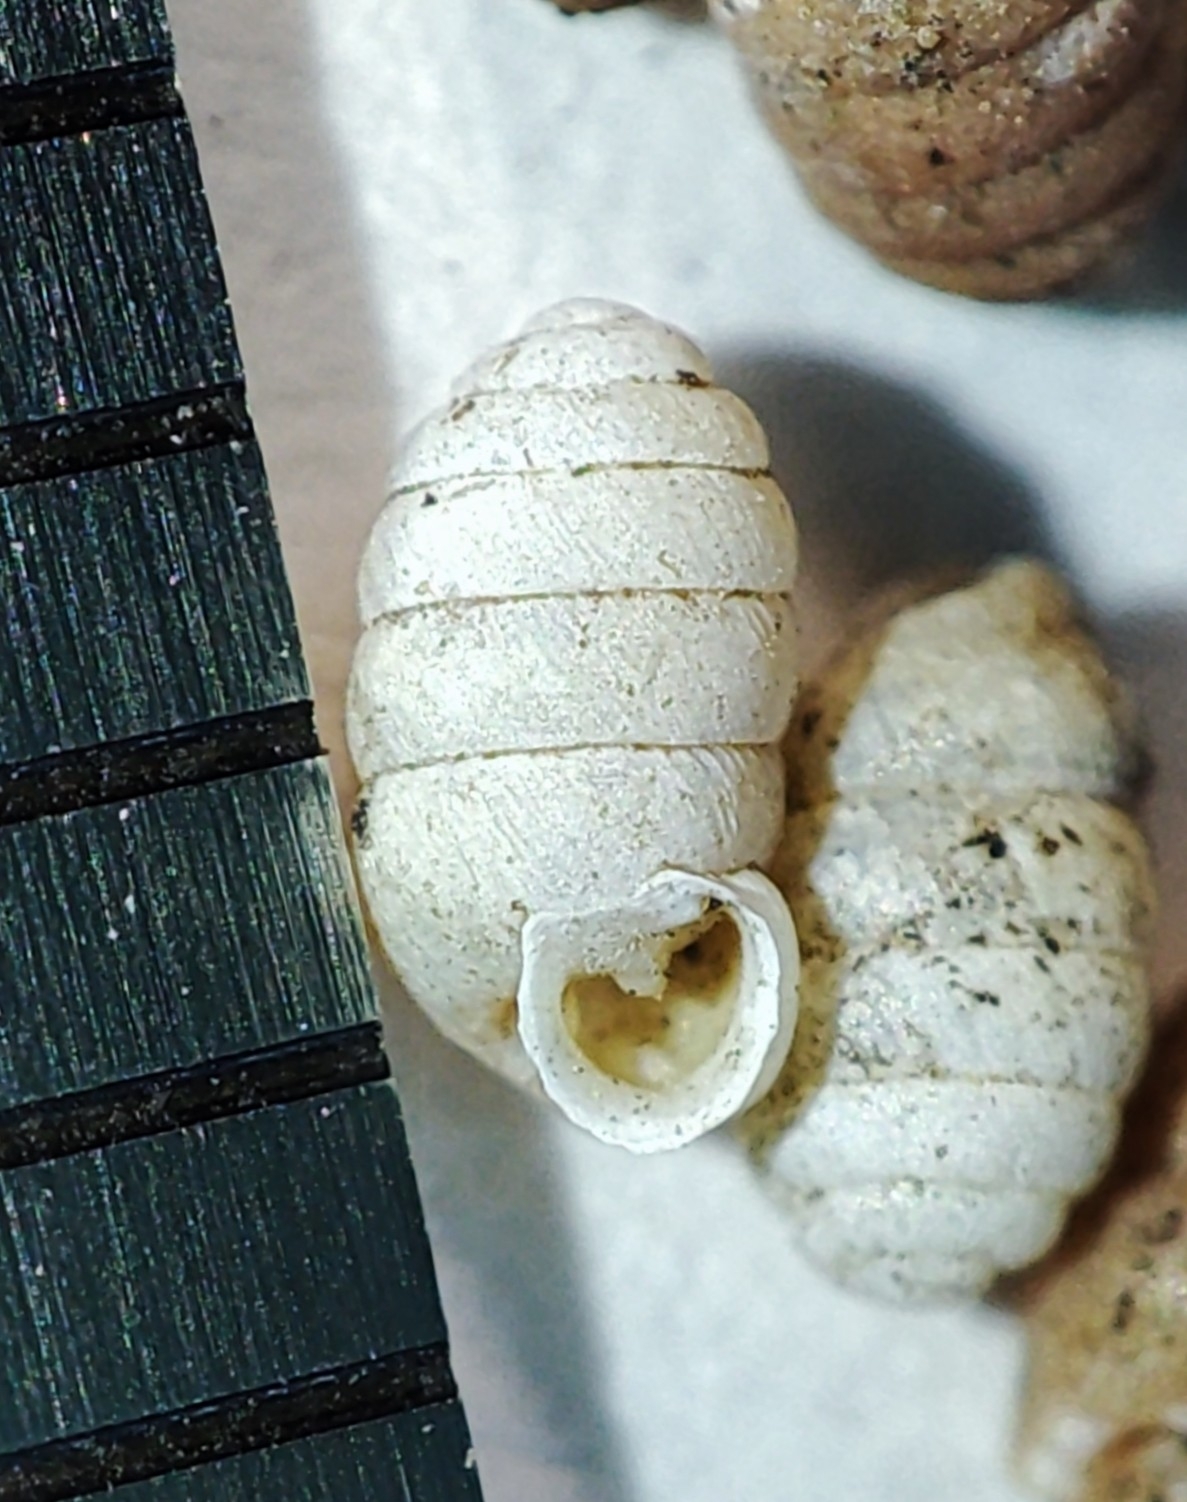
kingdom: Animalia
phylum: Mollusca
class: Gastropoda
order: Stylommatophora
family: Pupillidae
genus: Pupilla
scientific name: Pupilla triplicata
